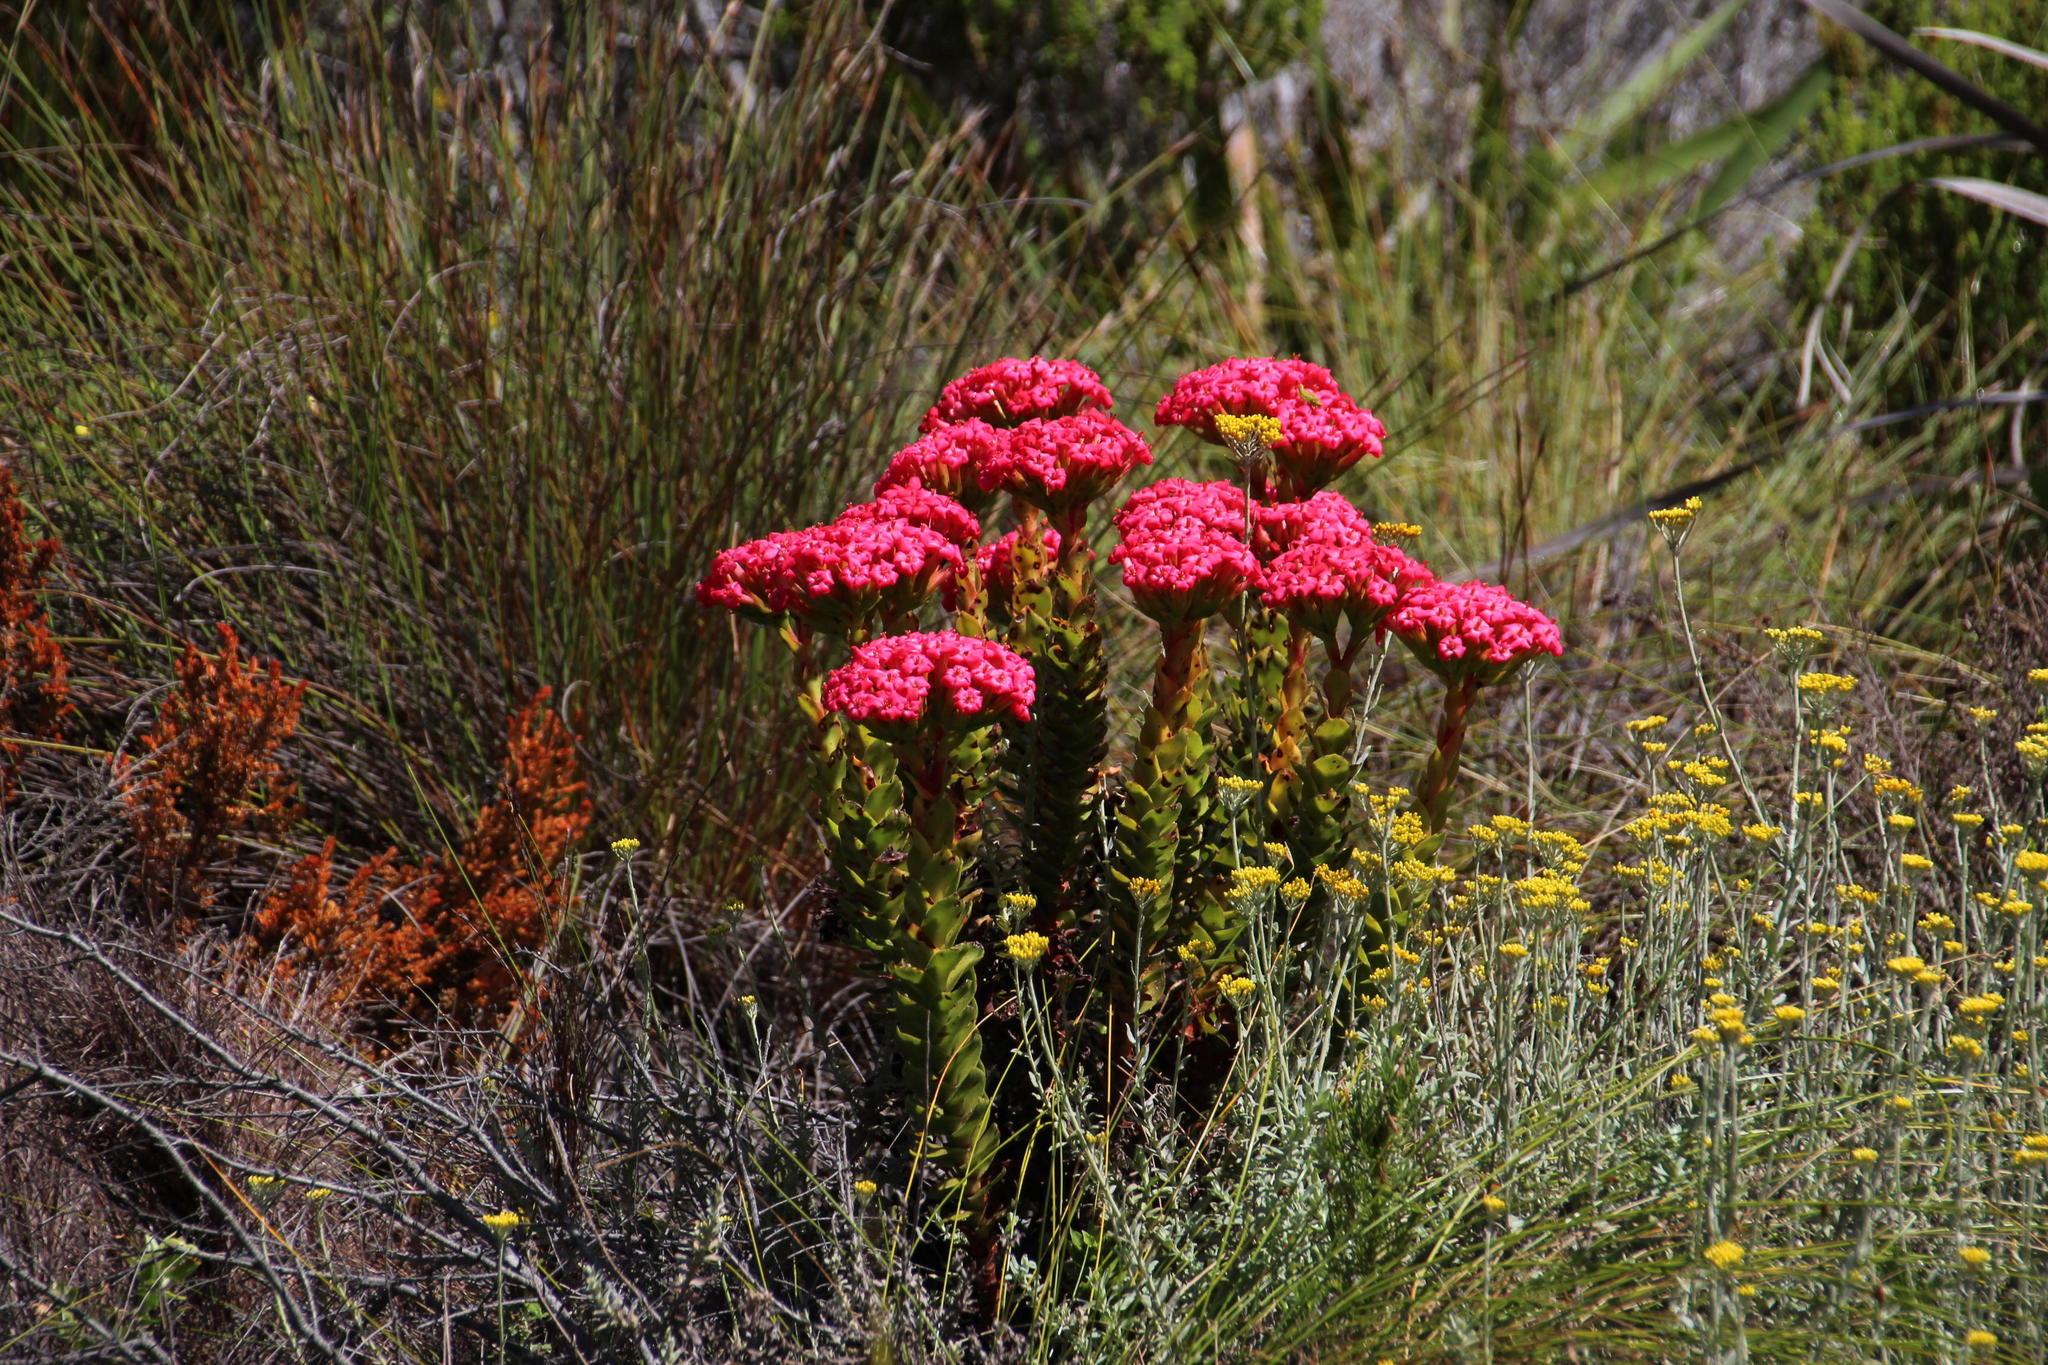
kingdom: Plantae
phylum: Tracheophyta
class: Magnoliopsida
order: Saxifragales
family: Crassulaceae
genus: Crassula
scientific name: Crassula coccinea
